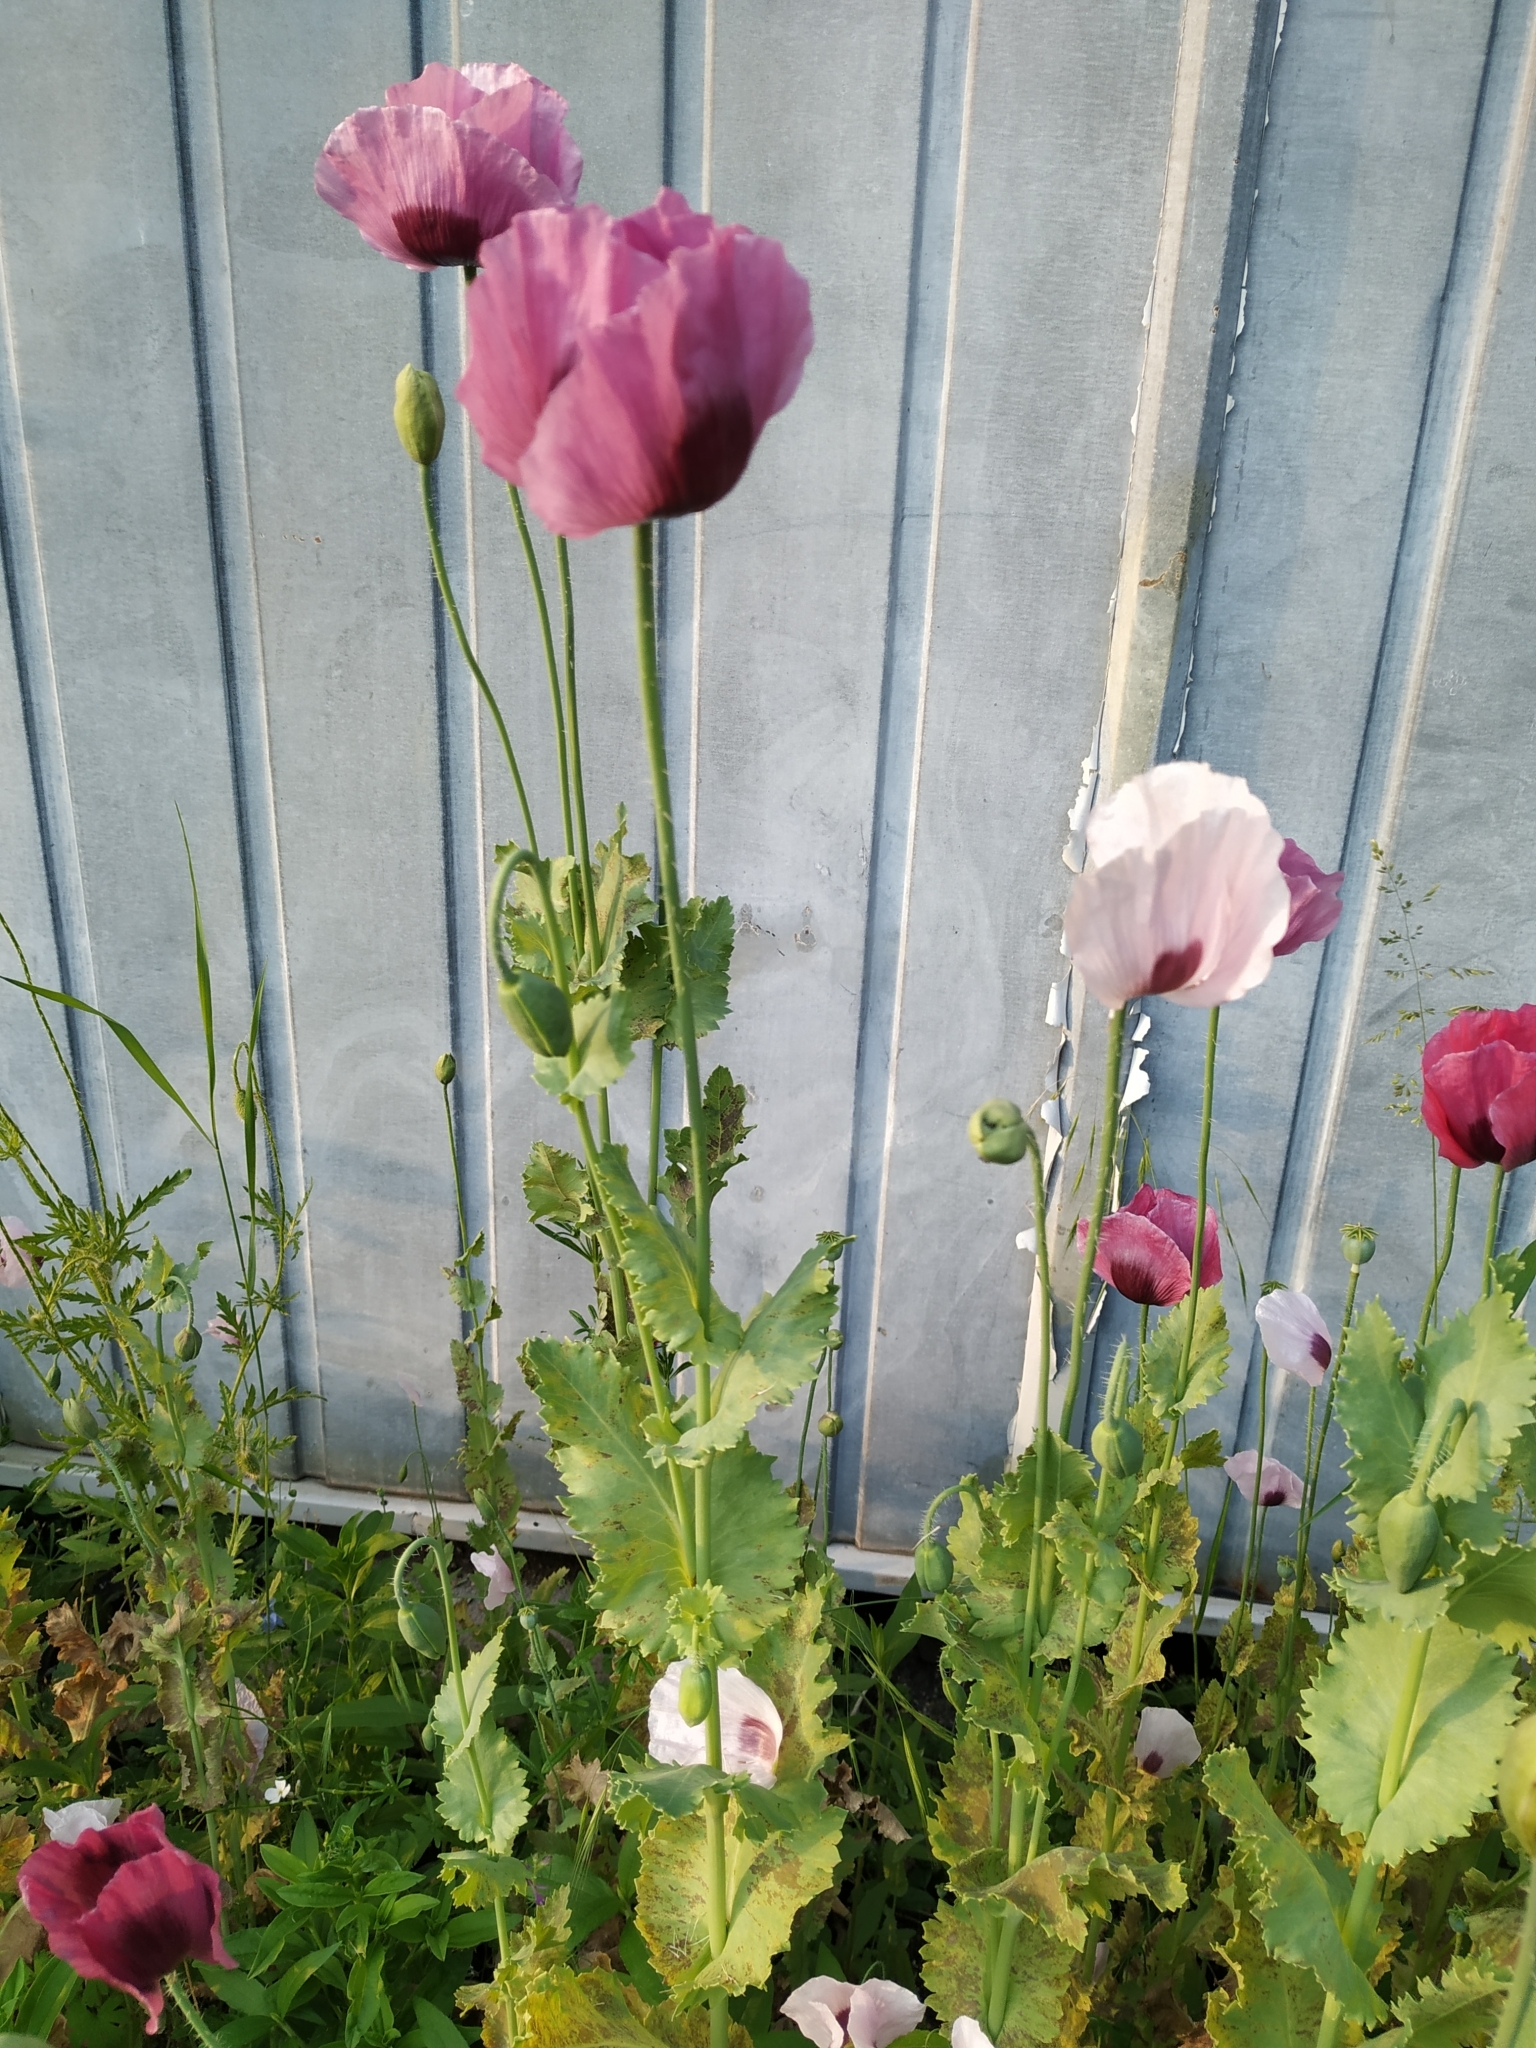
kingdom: Plantae
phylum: Tracheophyta
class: Magnoliopsida
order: Ranunculales
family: Papaveraceae
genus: Papaver
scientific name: Papaver somniferum
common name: Opium poppy
